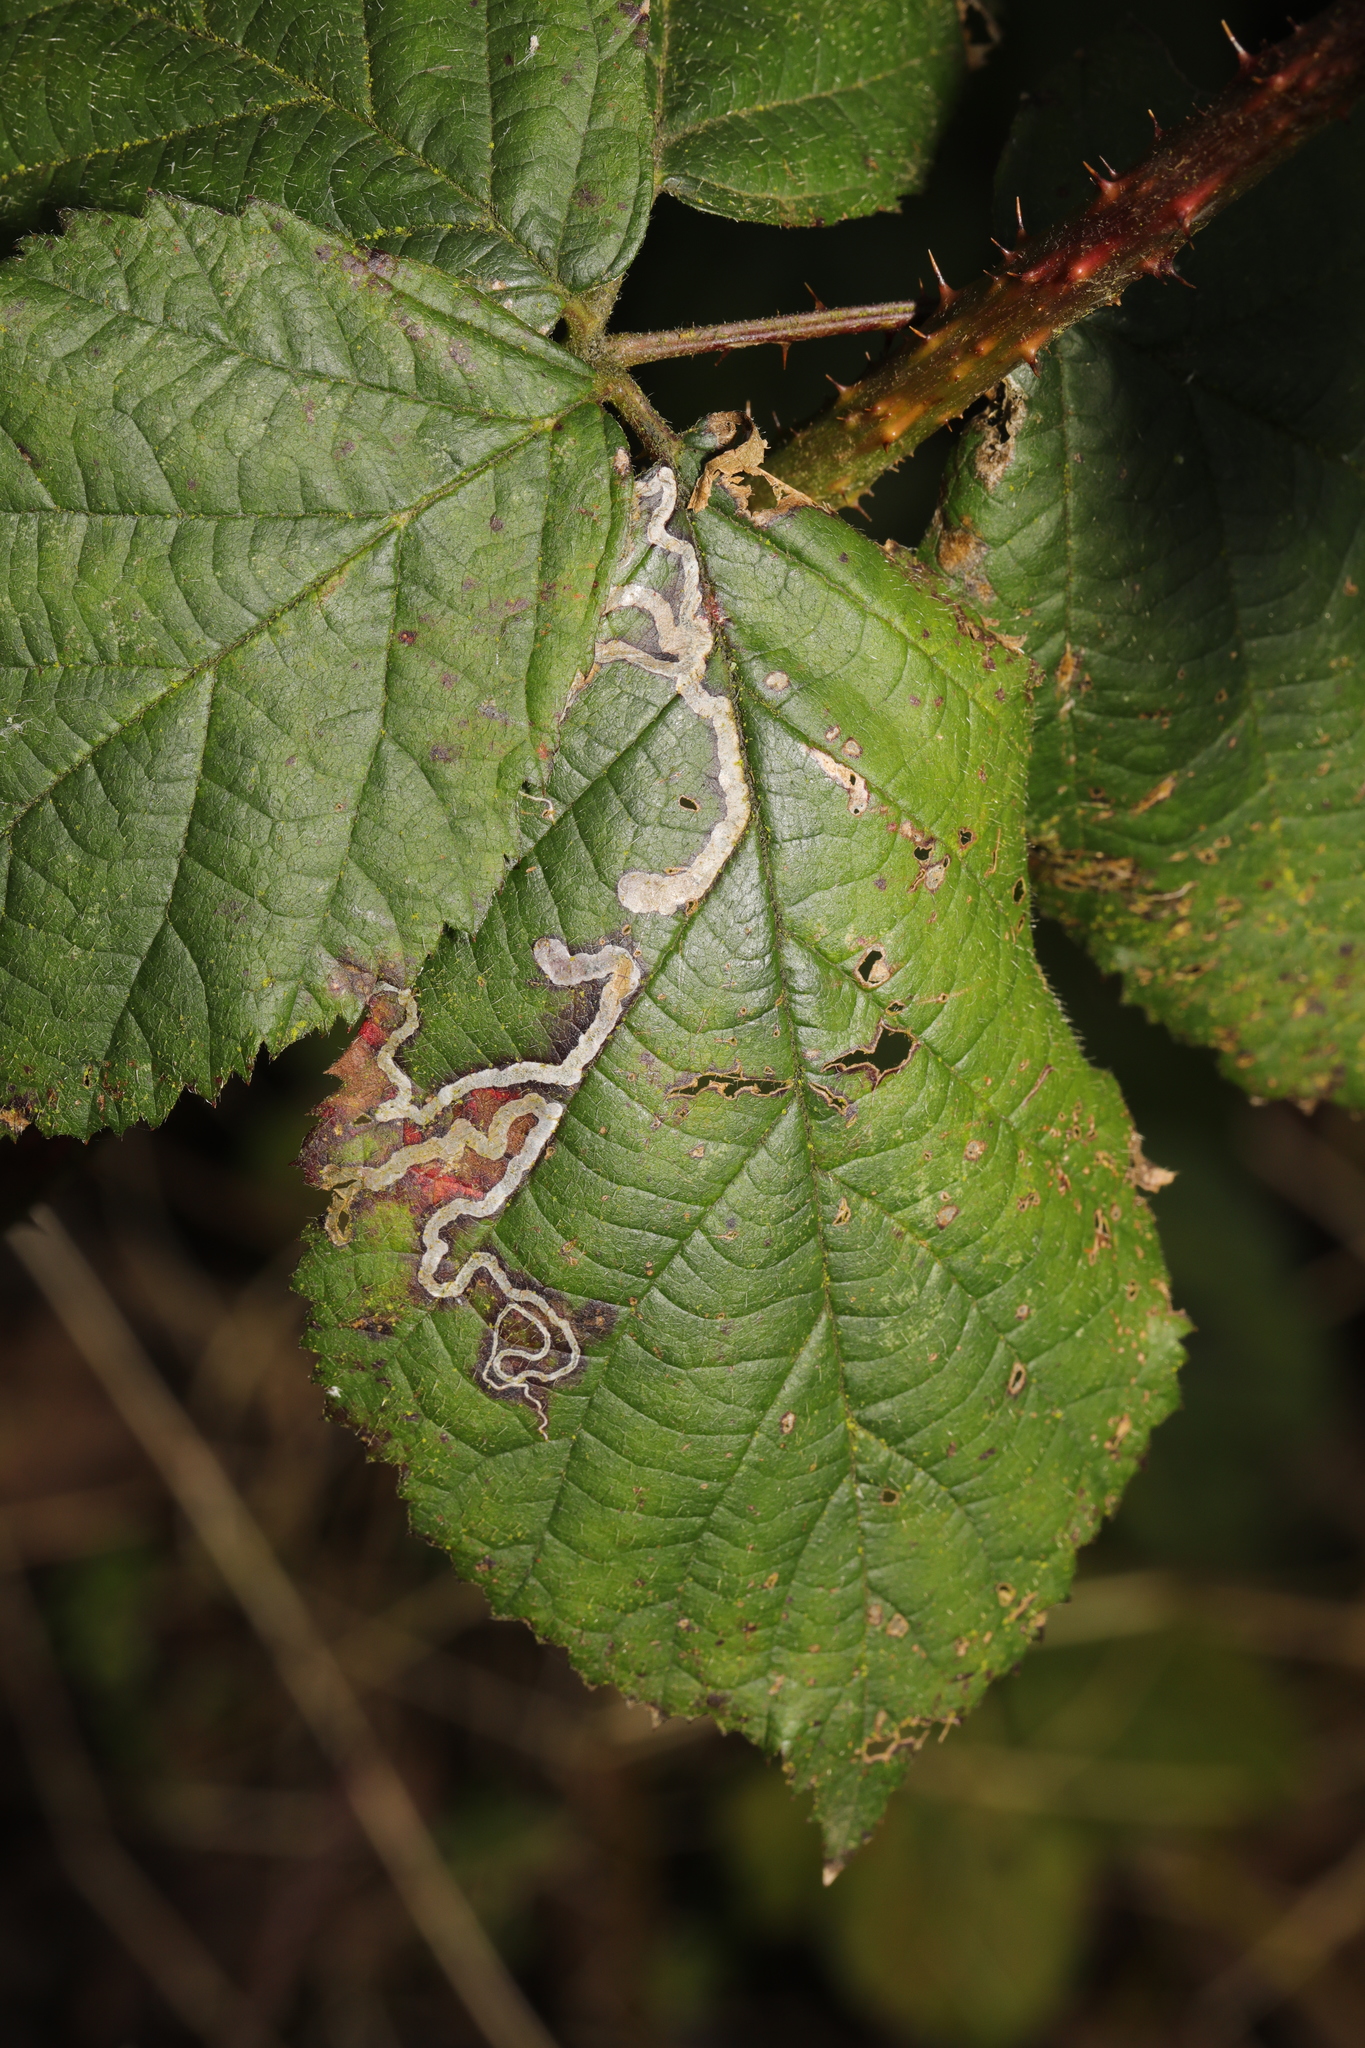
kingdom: Animalia
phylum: Arthropoda
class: Insecta
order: Lepidoptera
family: Nepticulidae
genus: Stigmella
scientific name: Stigmella aurella
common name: Golden pigmy
